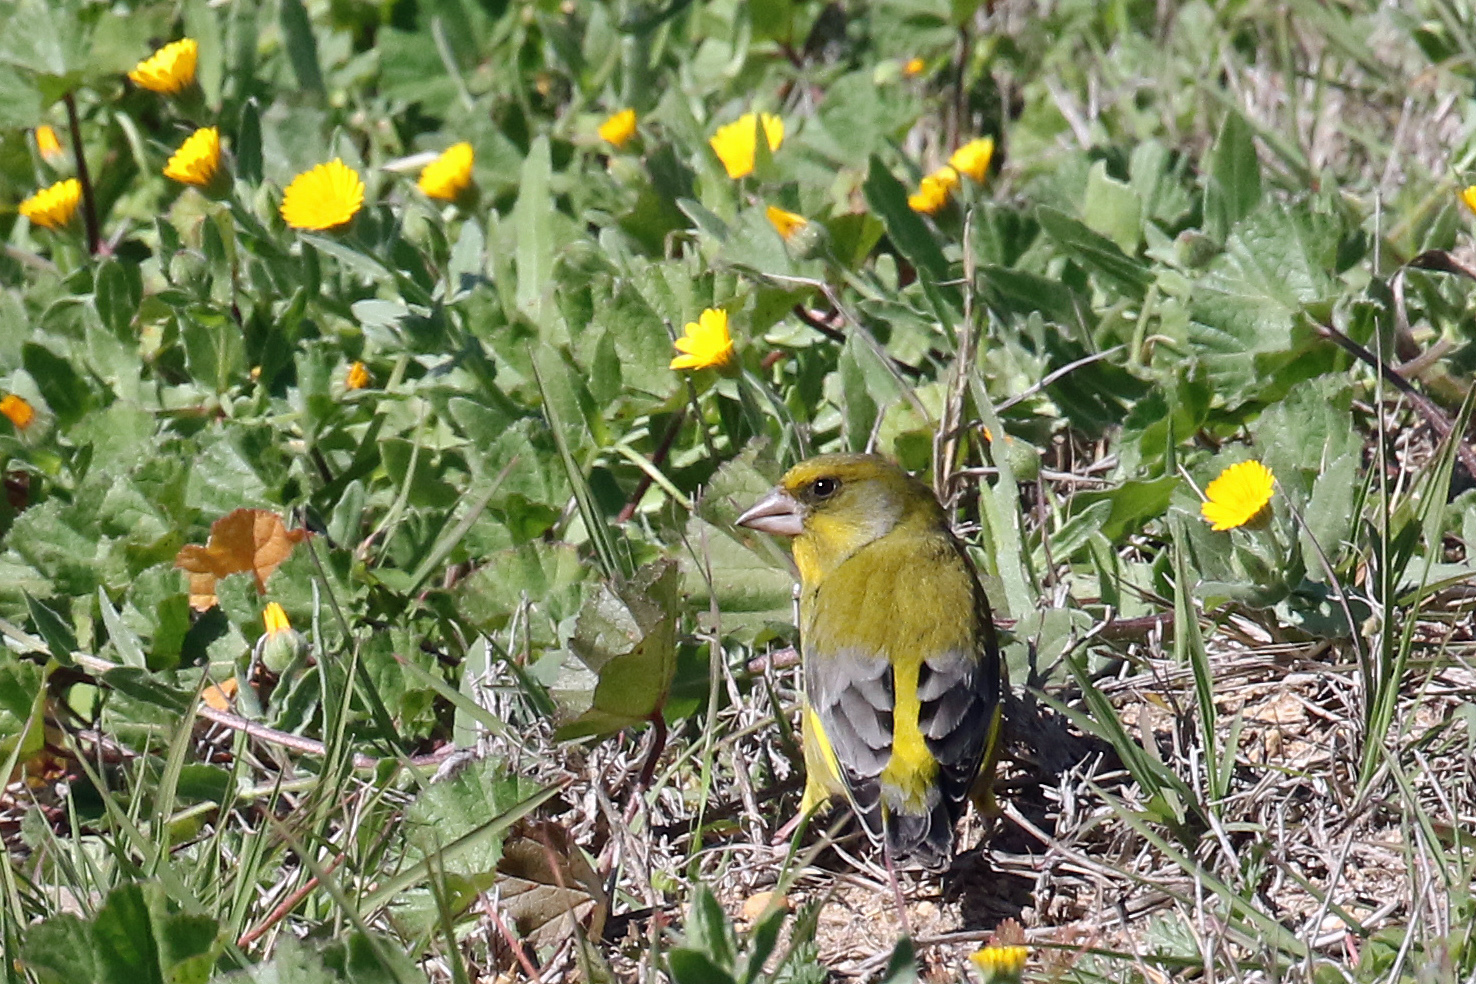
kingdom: Plantae
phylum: Tracheophyta
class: Liliopsida
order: Poales
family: Poaceae
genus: Chloris
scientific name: Chloris chloris
